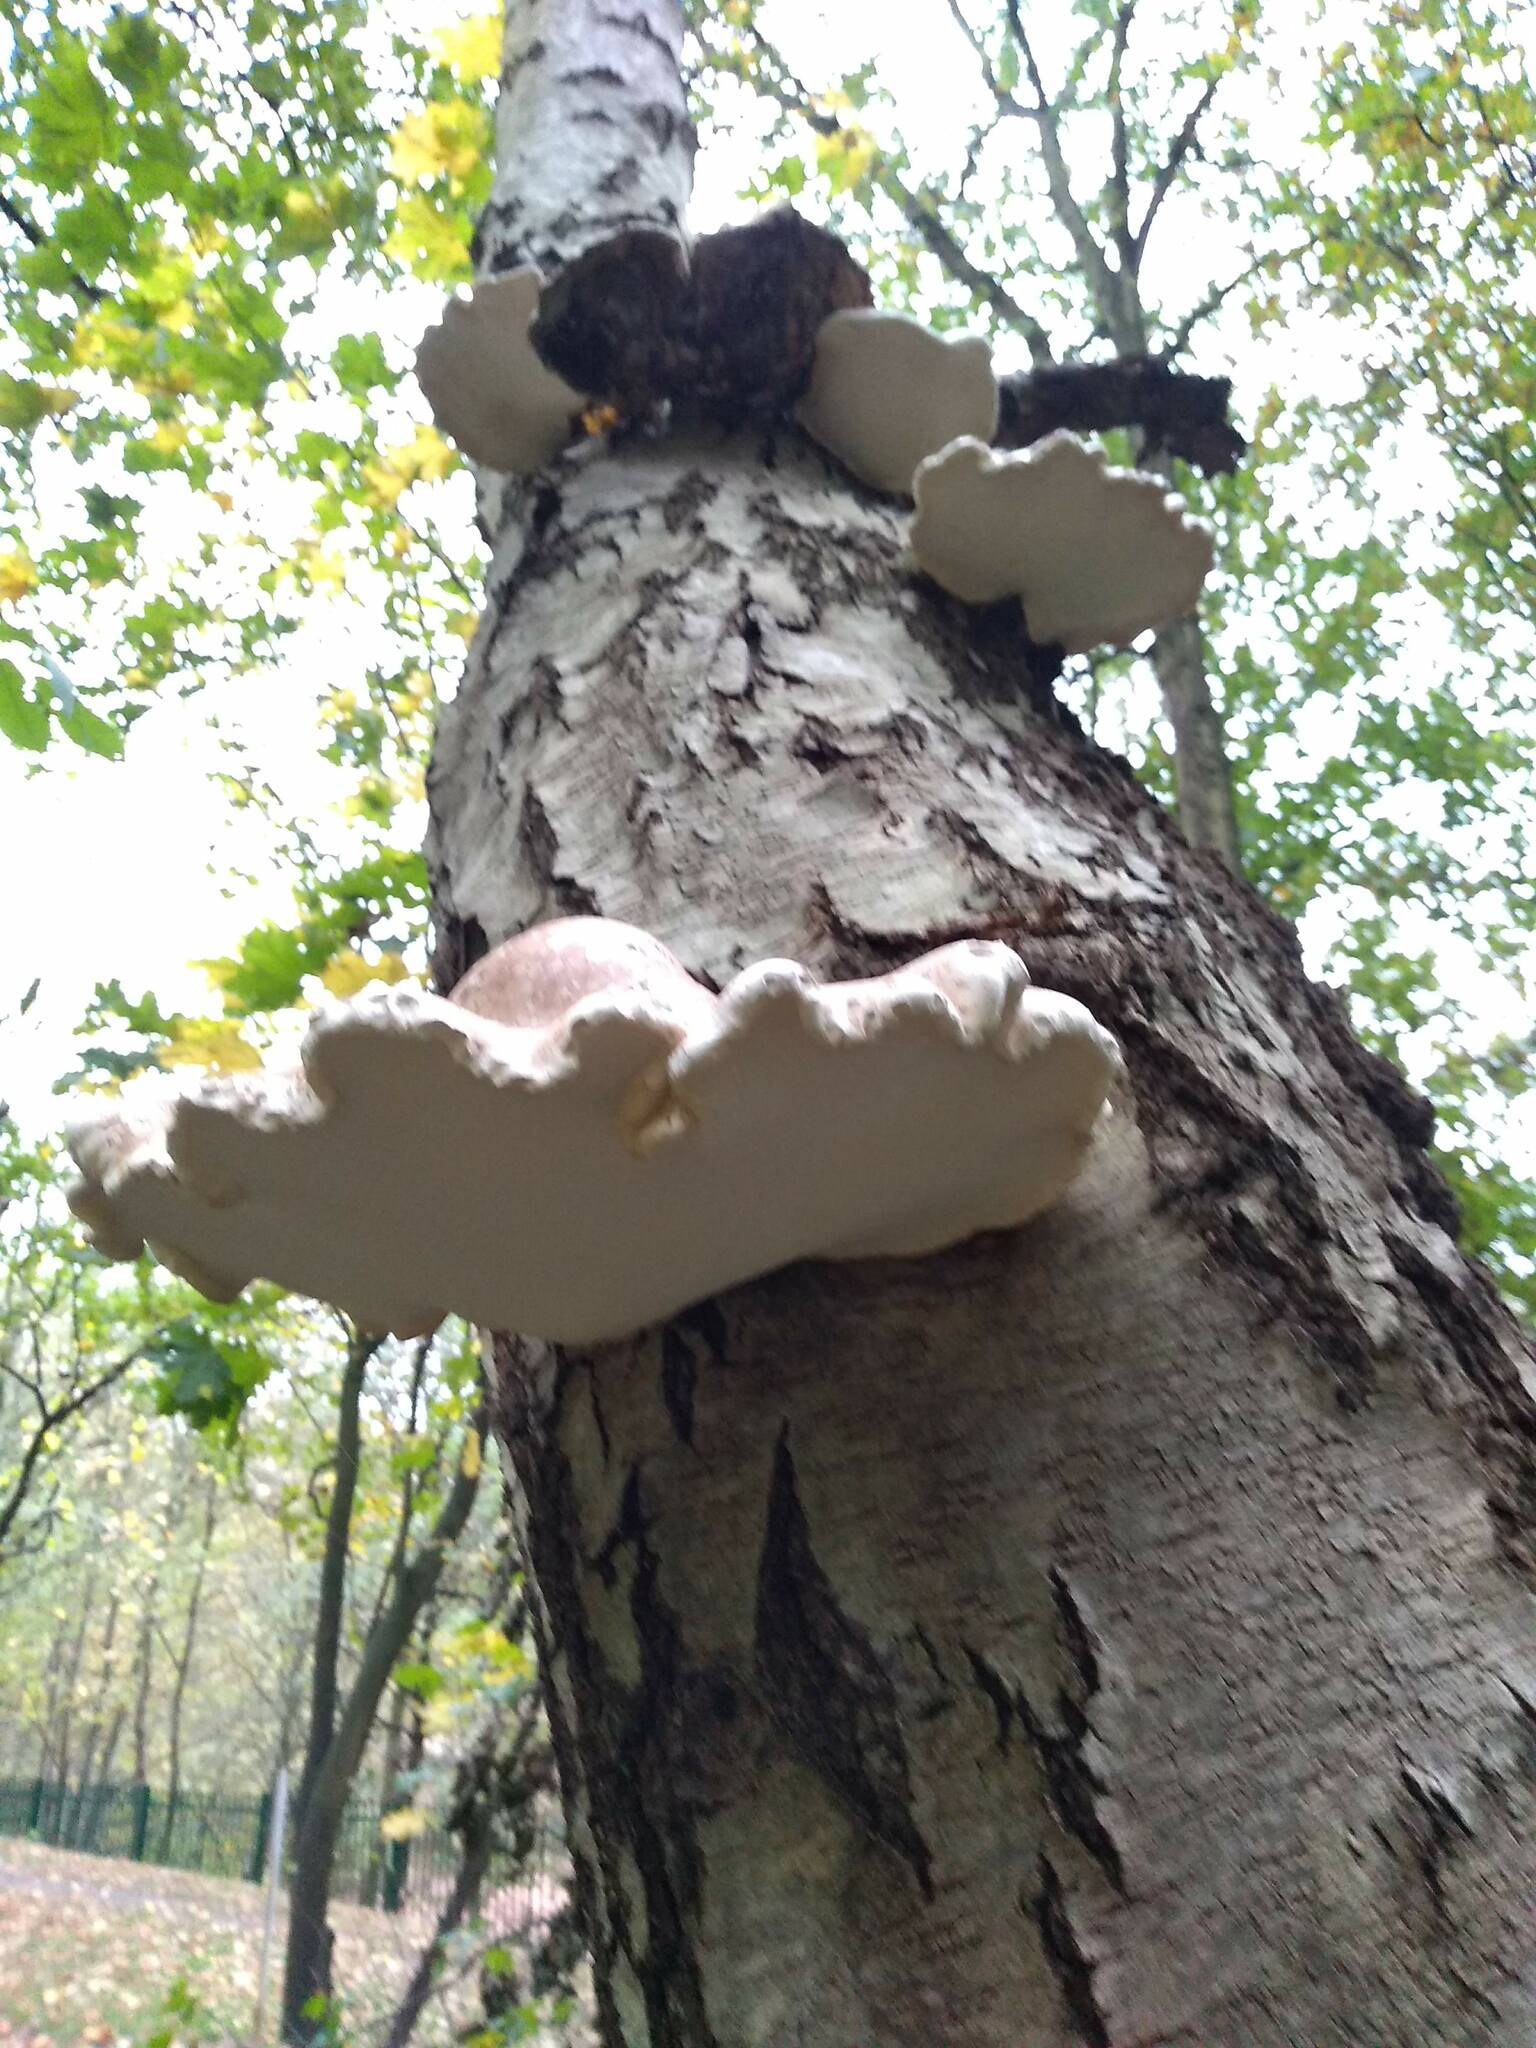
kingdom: Fungi
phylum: Basidiomycota
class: Agaricomycetes
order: Polyporales
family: Fomitopsidaceae
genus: Fomitopsis
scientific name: Fomitopsis betulina
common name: Birch polypore
